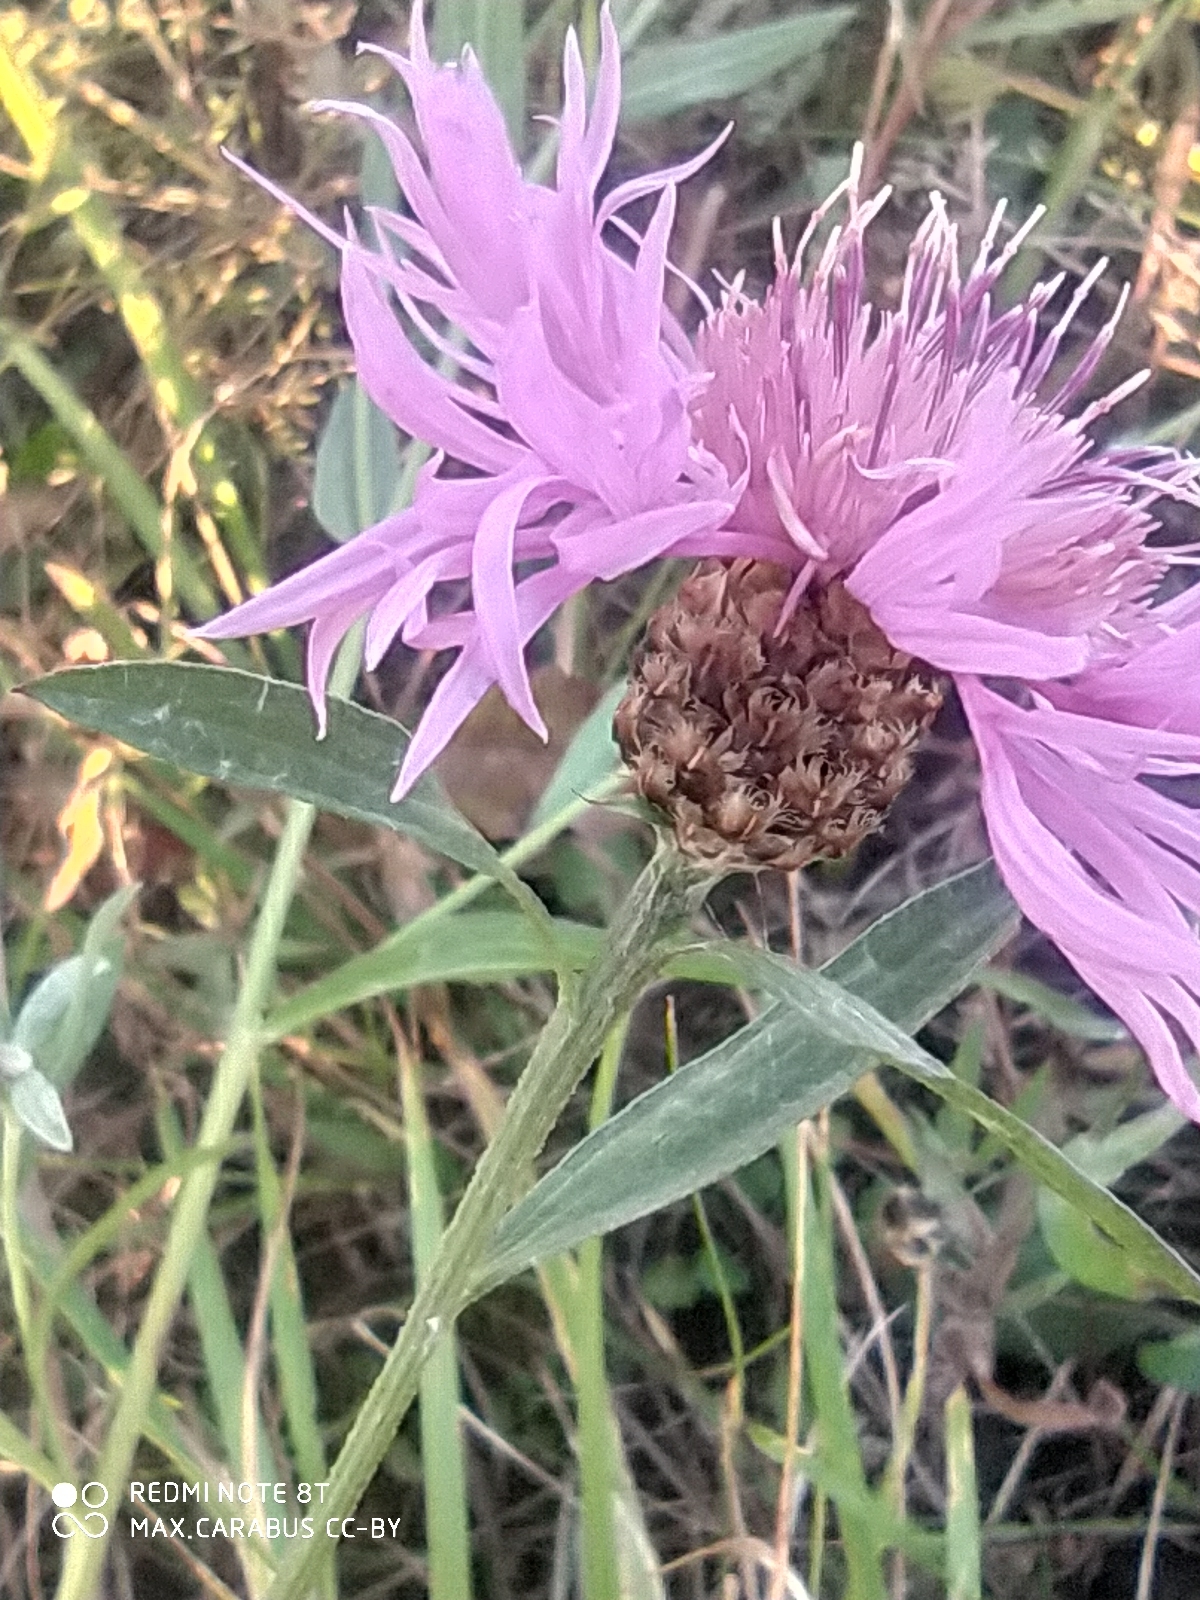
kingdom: Plantae
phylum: Tracheophyta
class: Magnoliopsida
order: Asterales
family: Asteraceae
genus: Centaurea
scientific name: Centaurea jacea
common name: Brown knapweed
